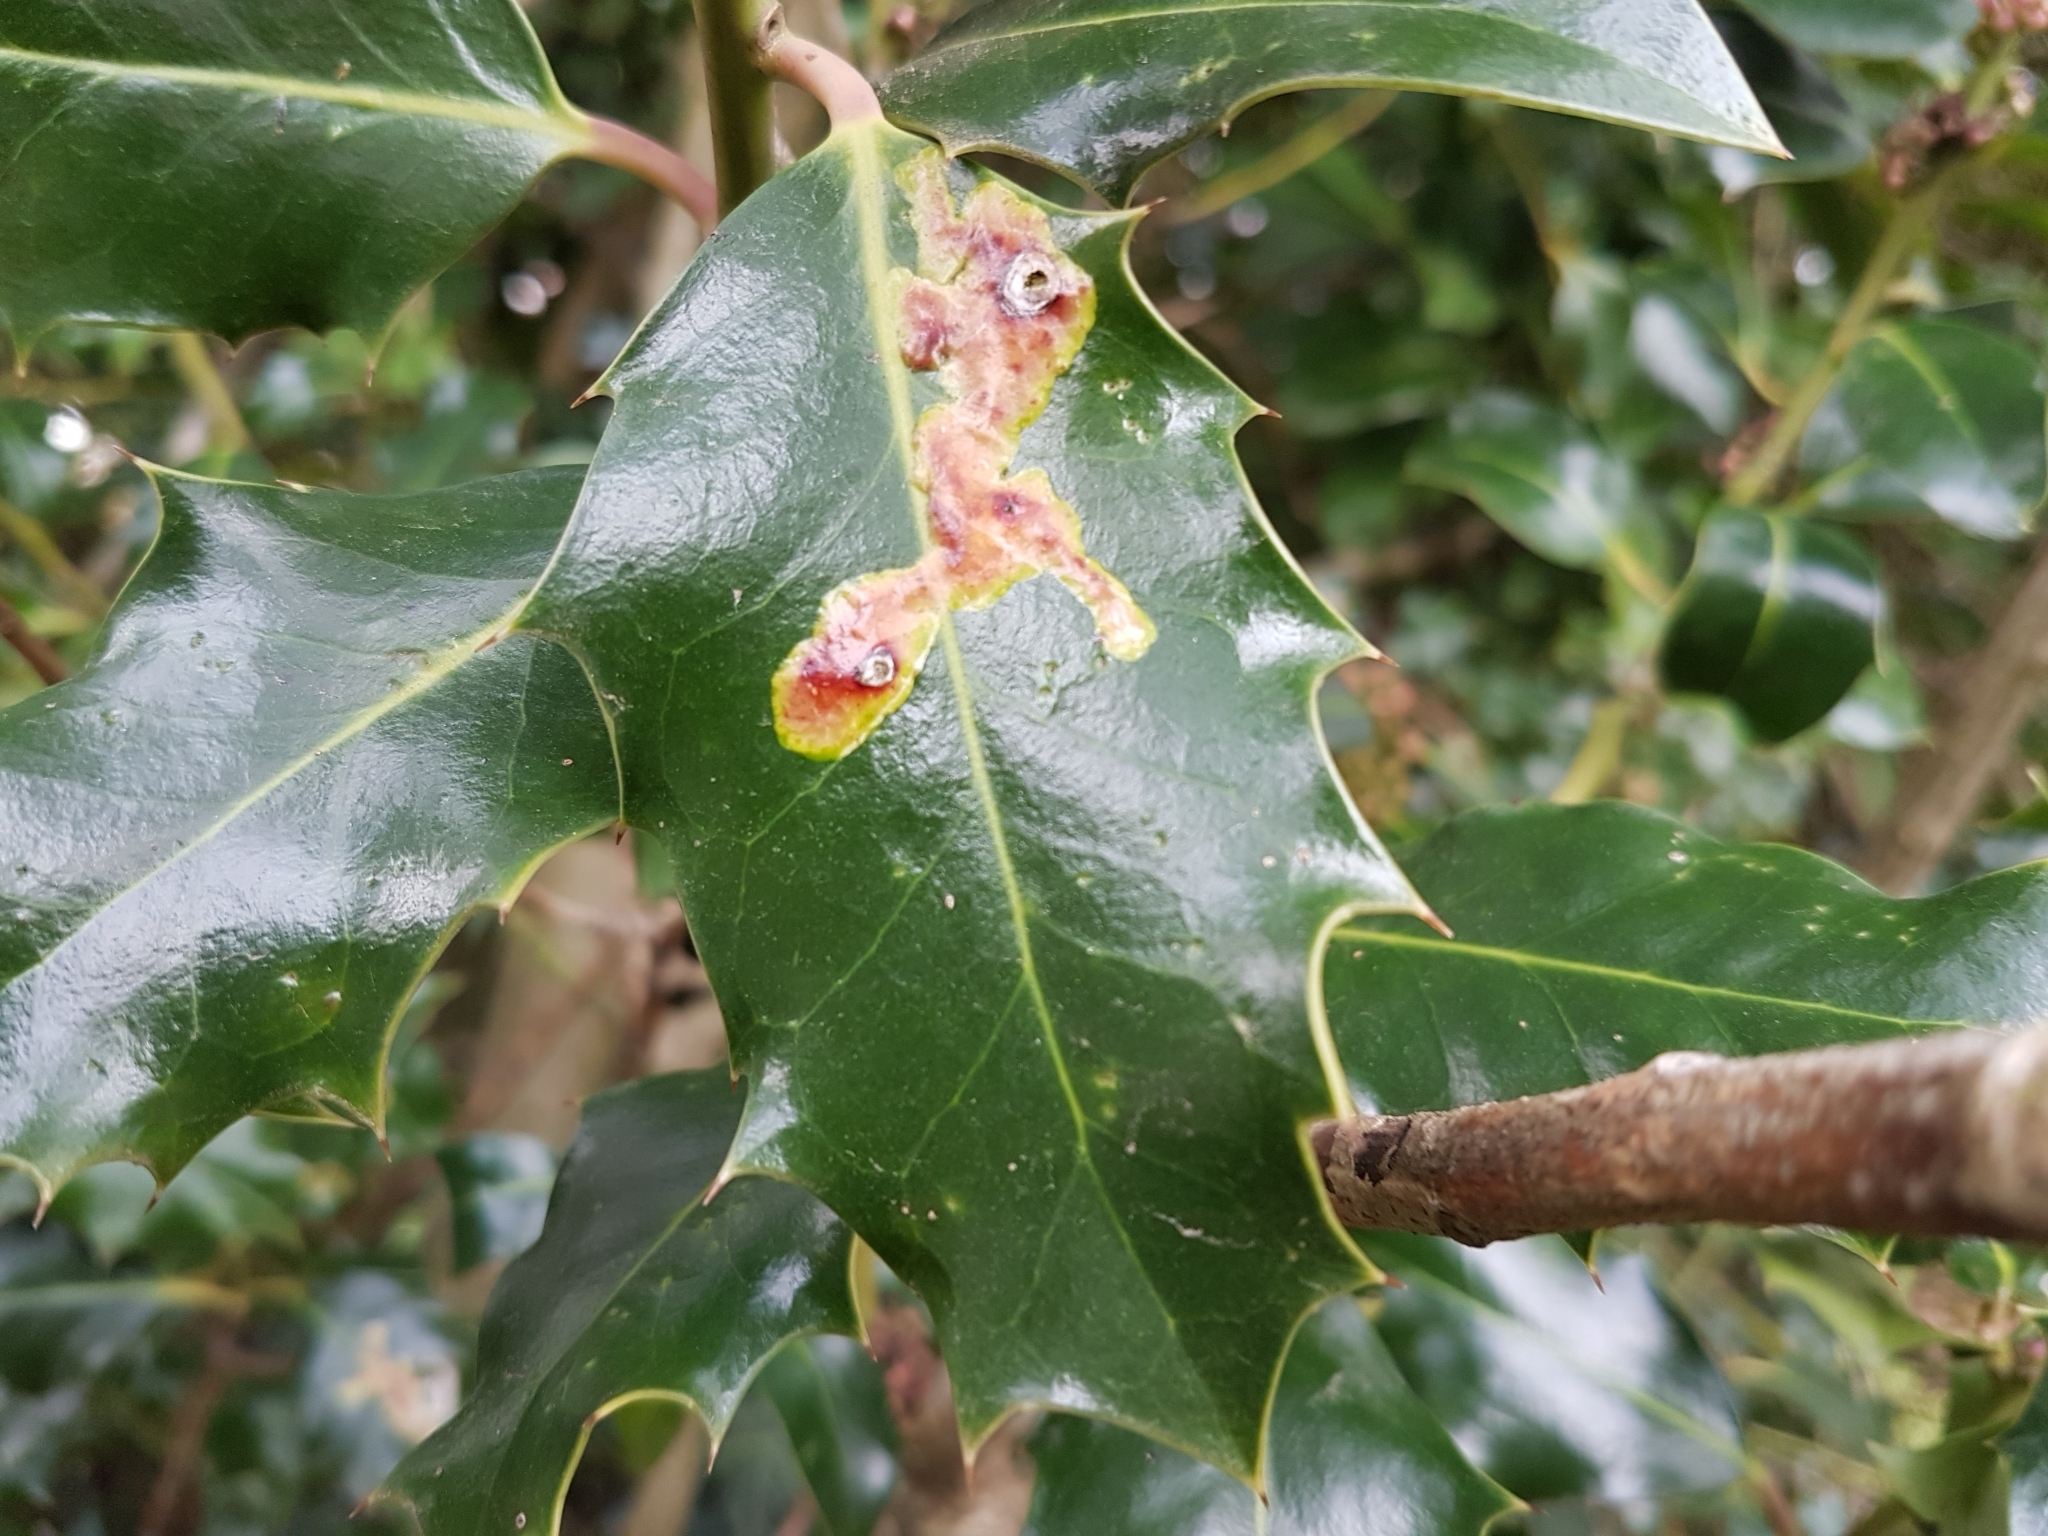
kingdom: Animalia
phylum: Arthropoda
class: Insecta
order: Diptera
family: Agromyzidae
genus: Phytomyza
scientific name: Phytomyza ilicis
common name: Holly leafminer
